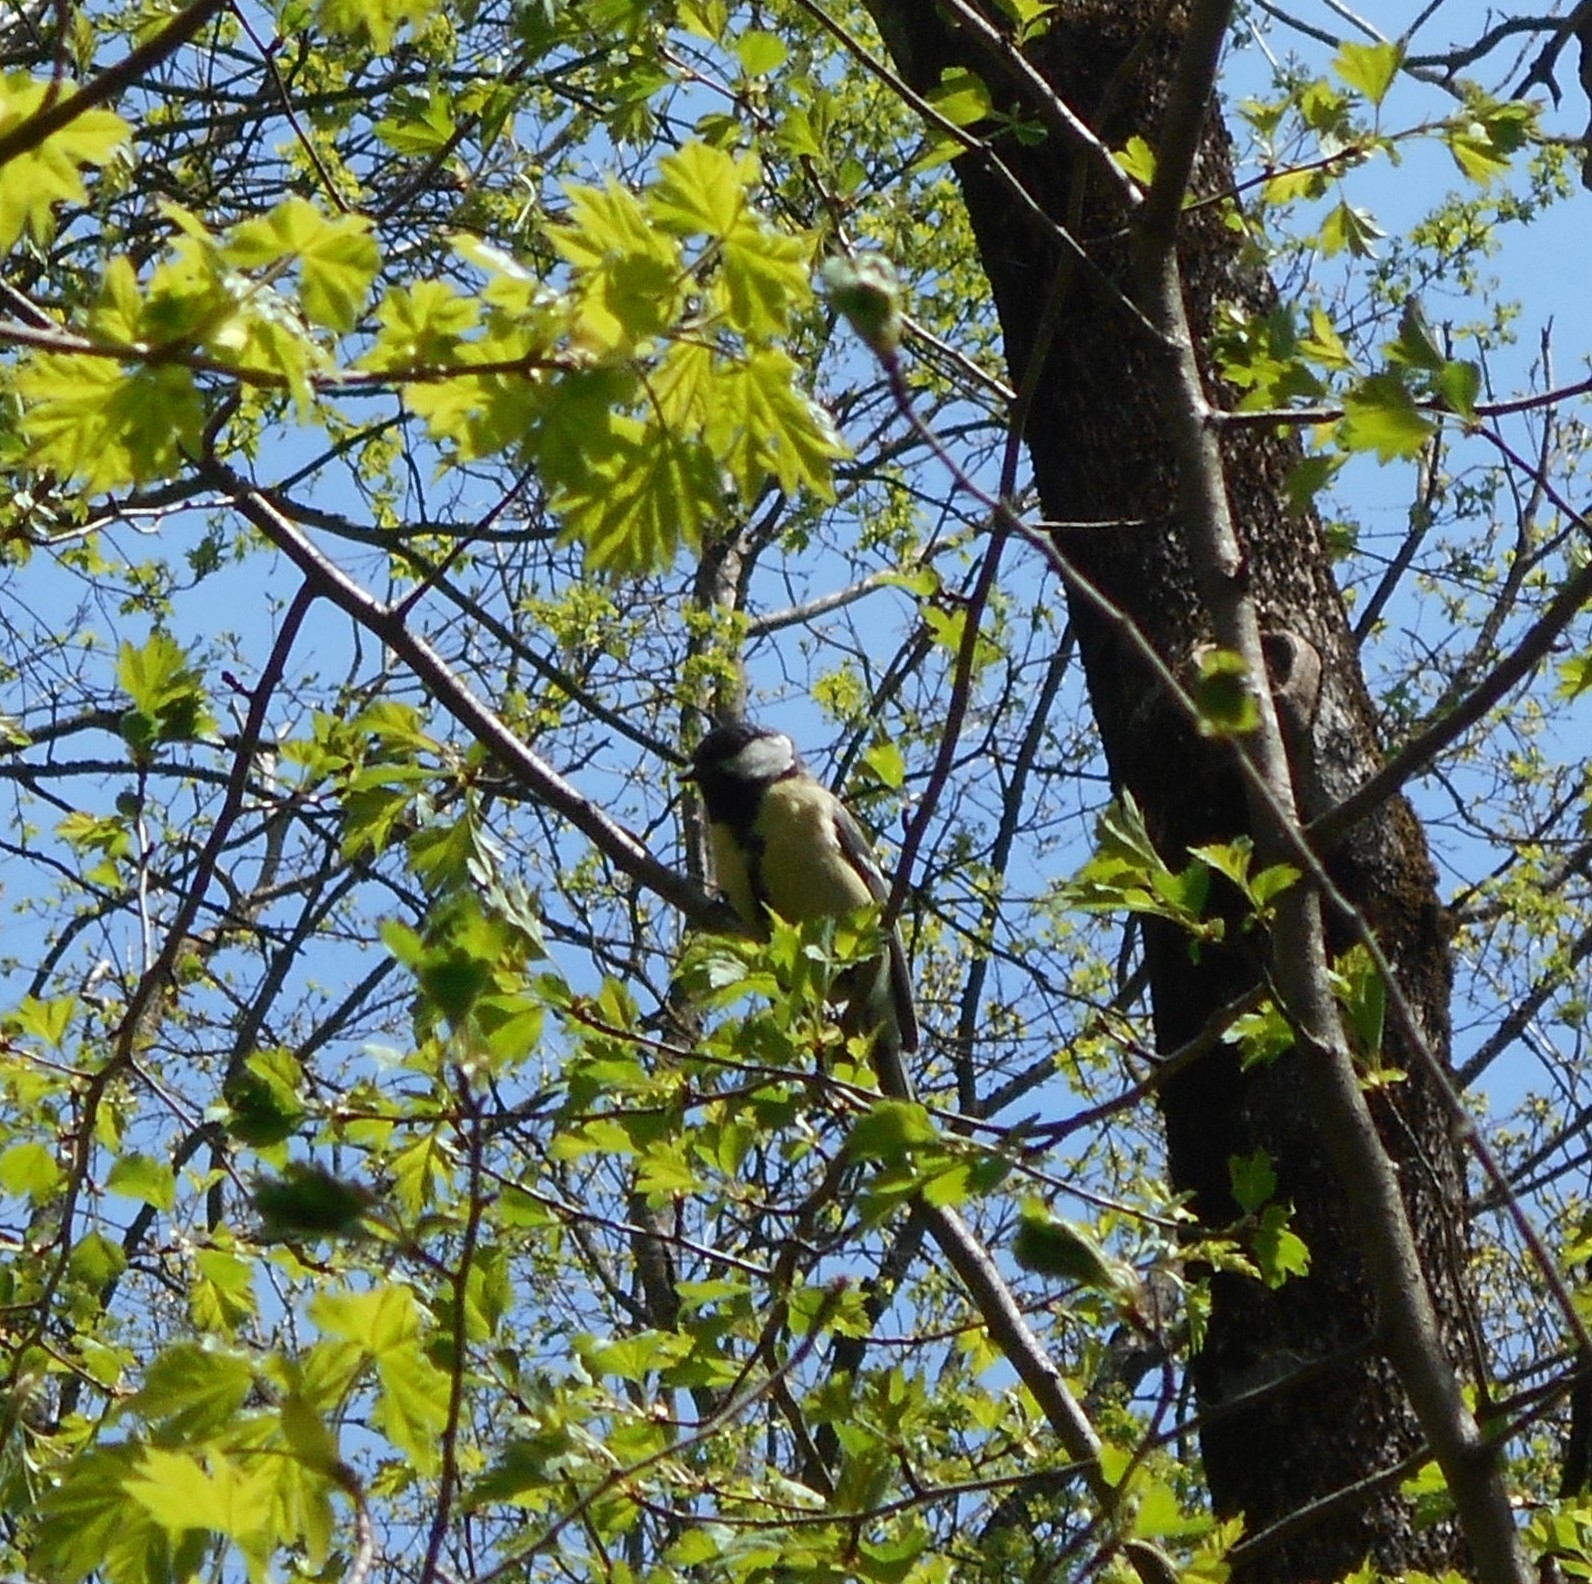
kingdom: Animalia
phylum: Chordata
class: Aves
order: Passeriformes
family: Paridae
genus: Parus
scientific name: Parus major
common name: Great tit
